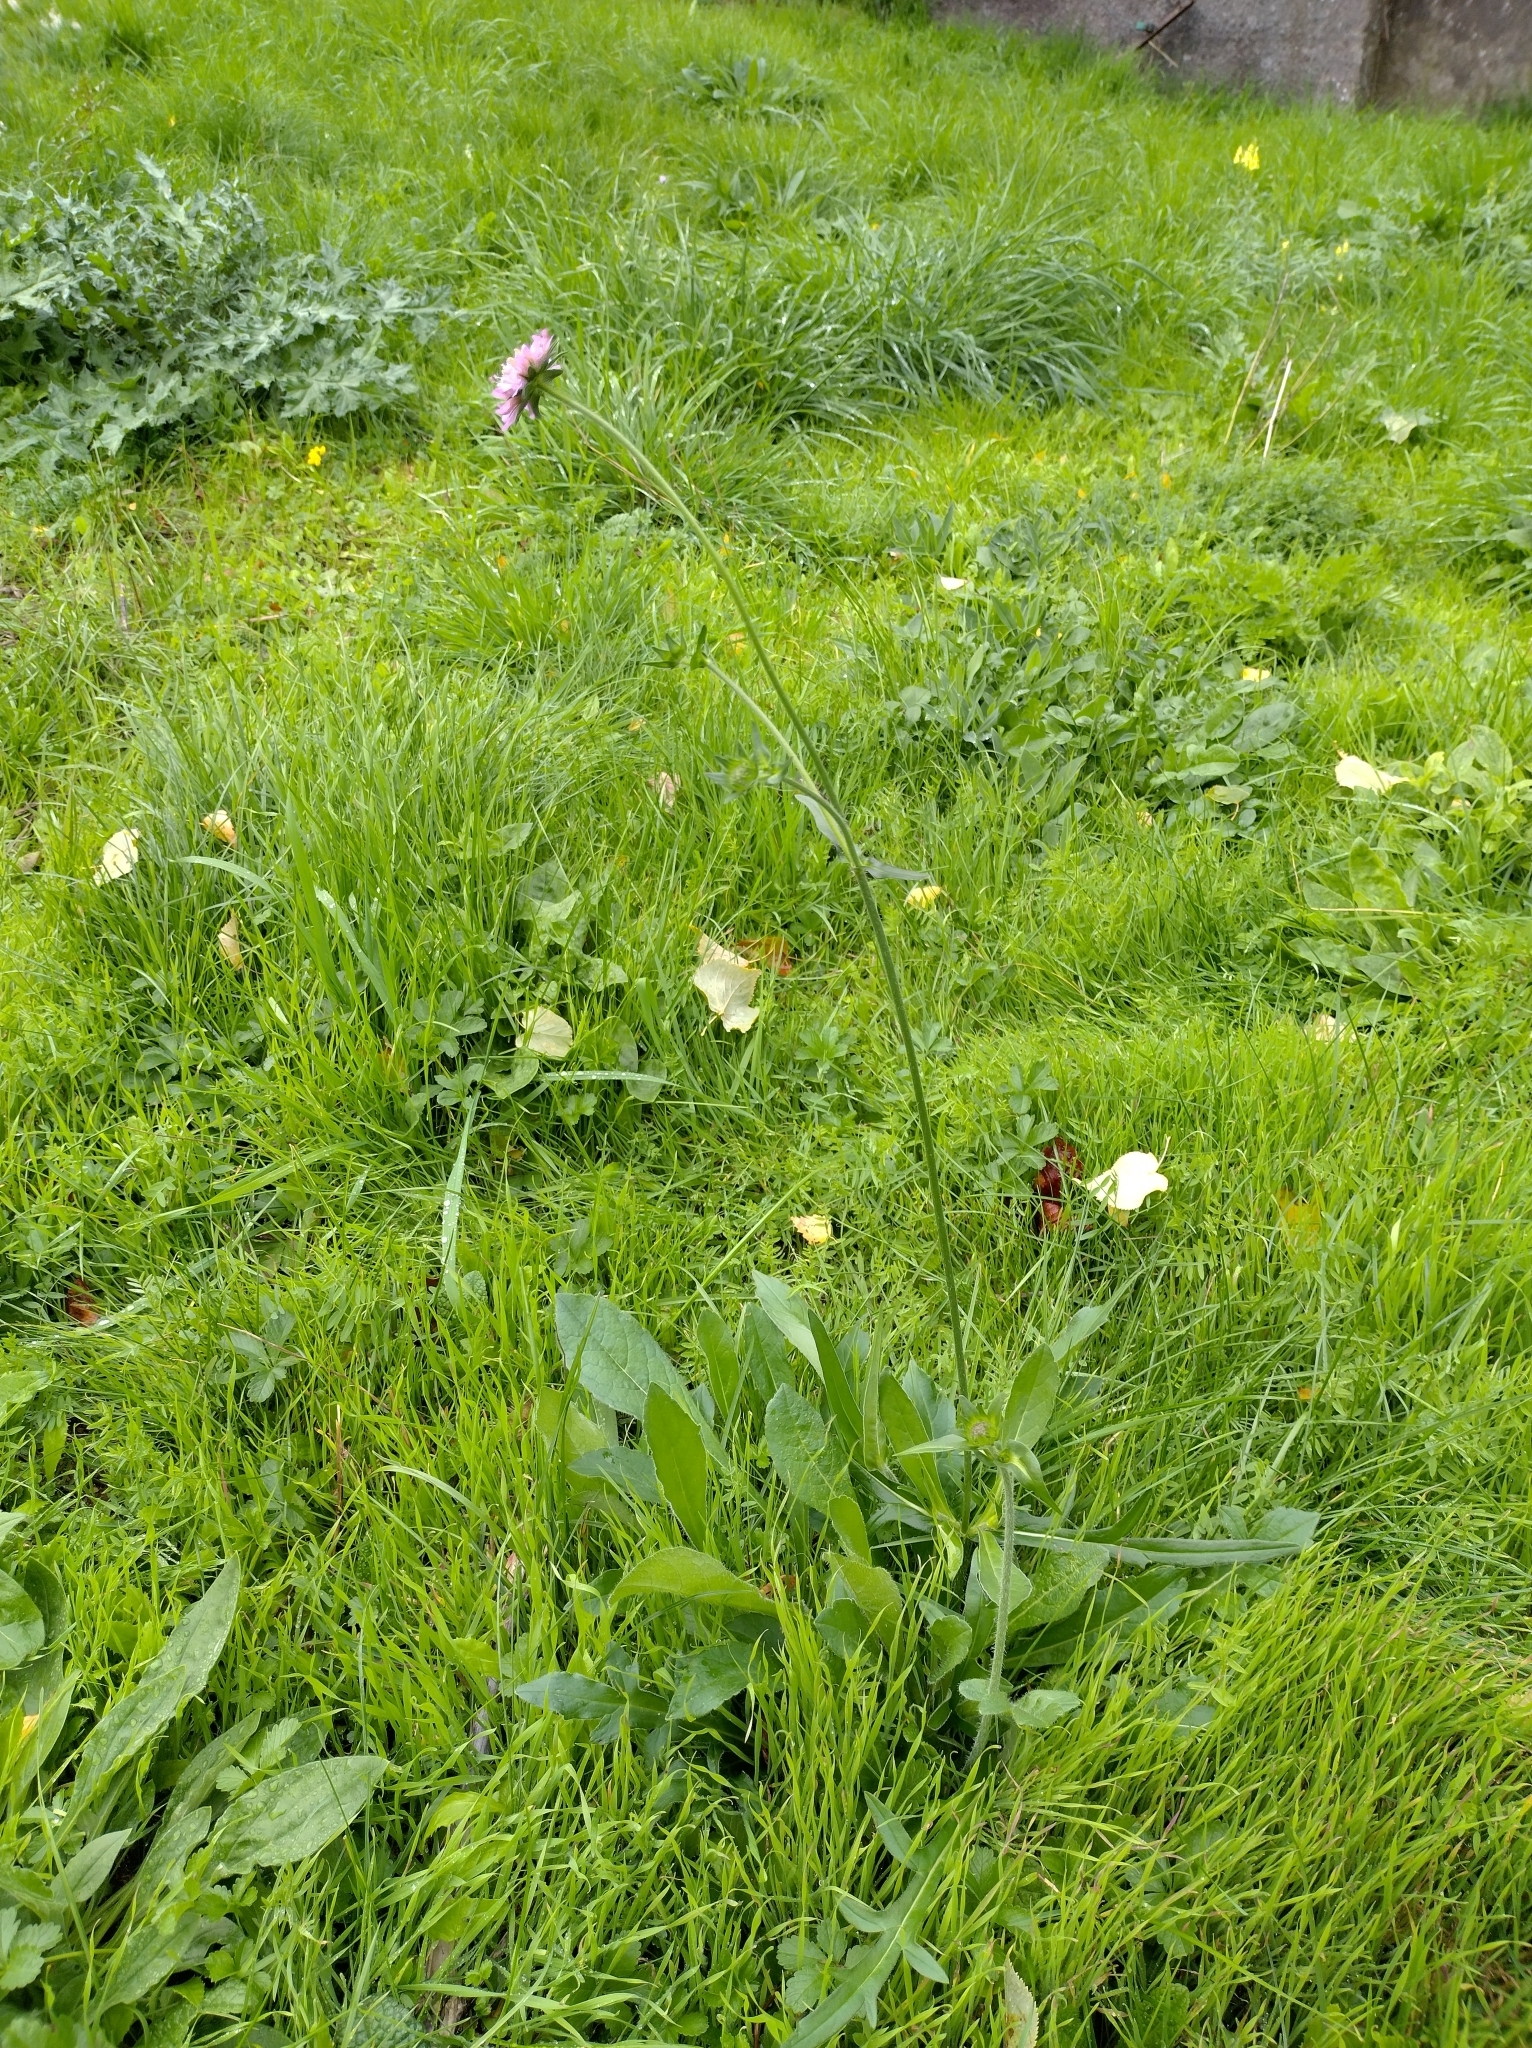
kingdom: Plantae
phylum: Tracheophyta
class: Magnoliopsida
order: Dipsacales
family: Caprifoliaceae
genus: Knautia
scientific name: Knautia arvensis
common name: Field scabiosa
